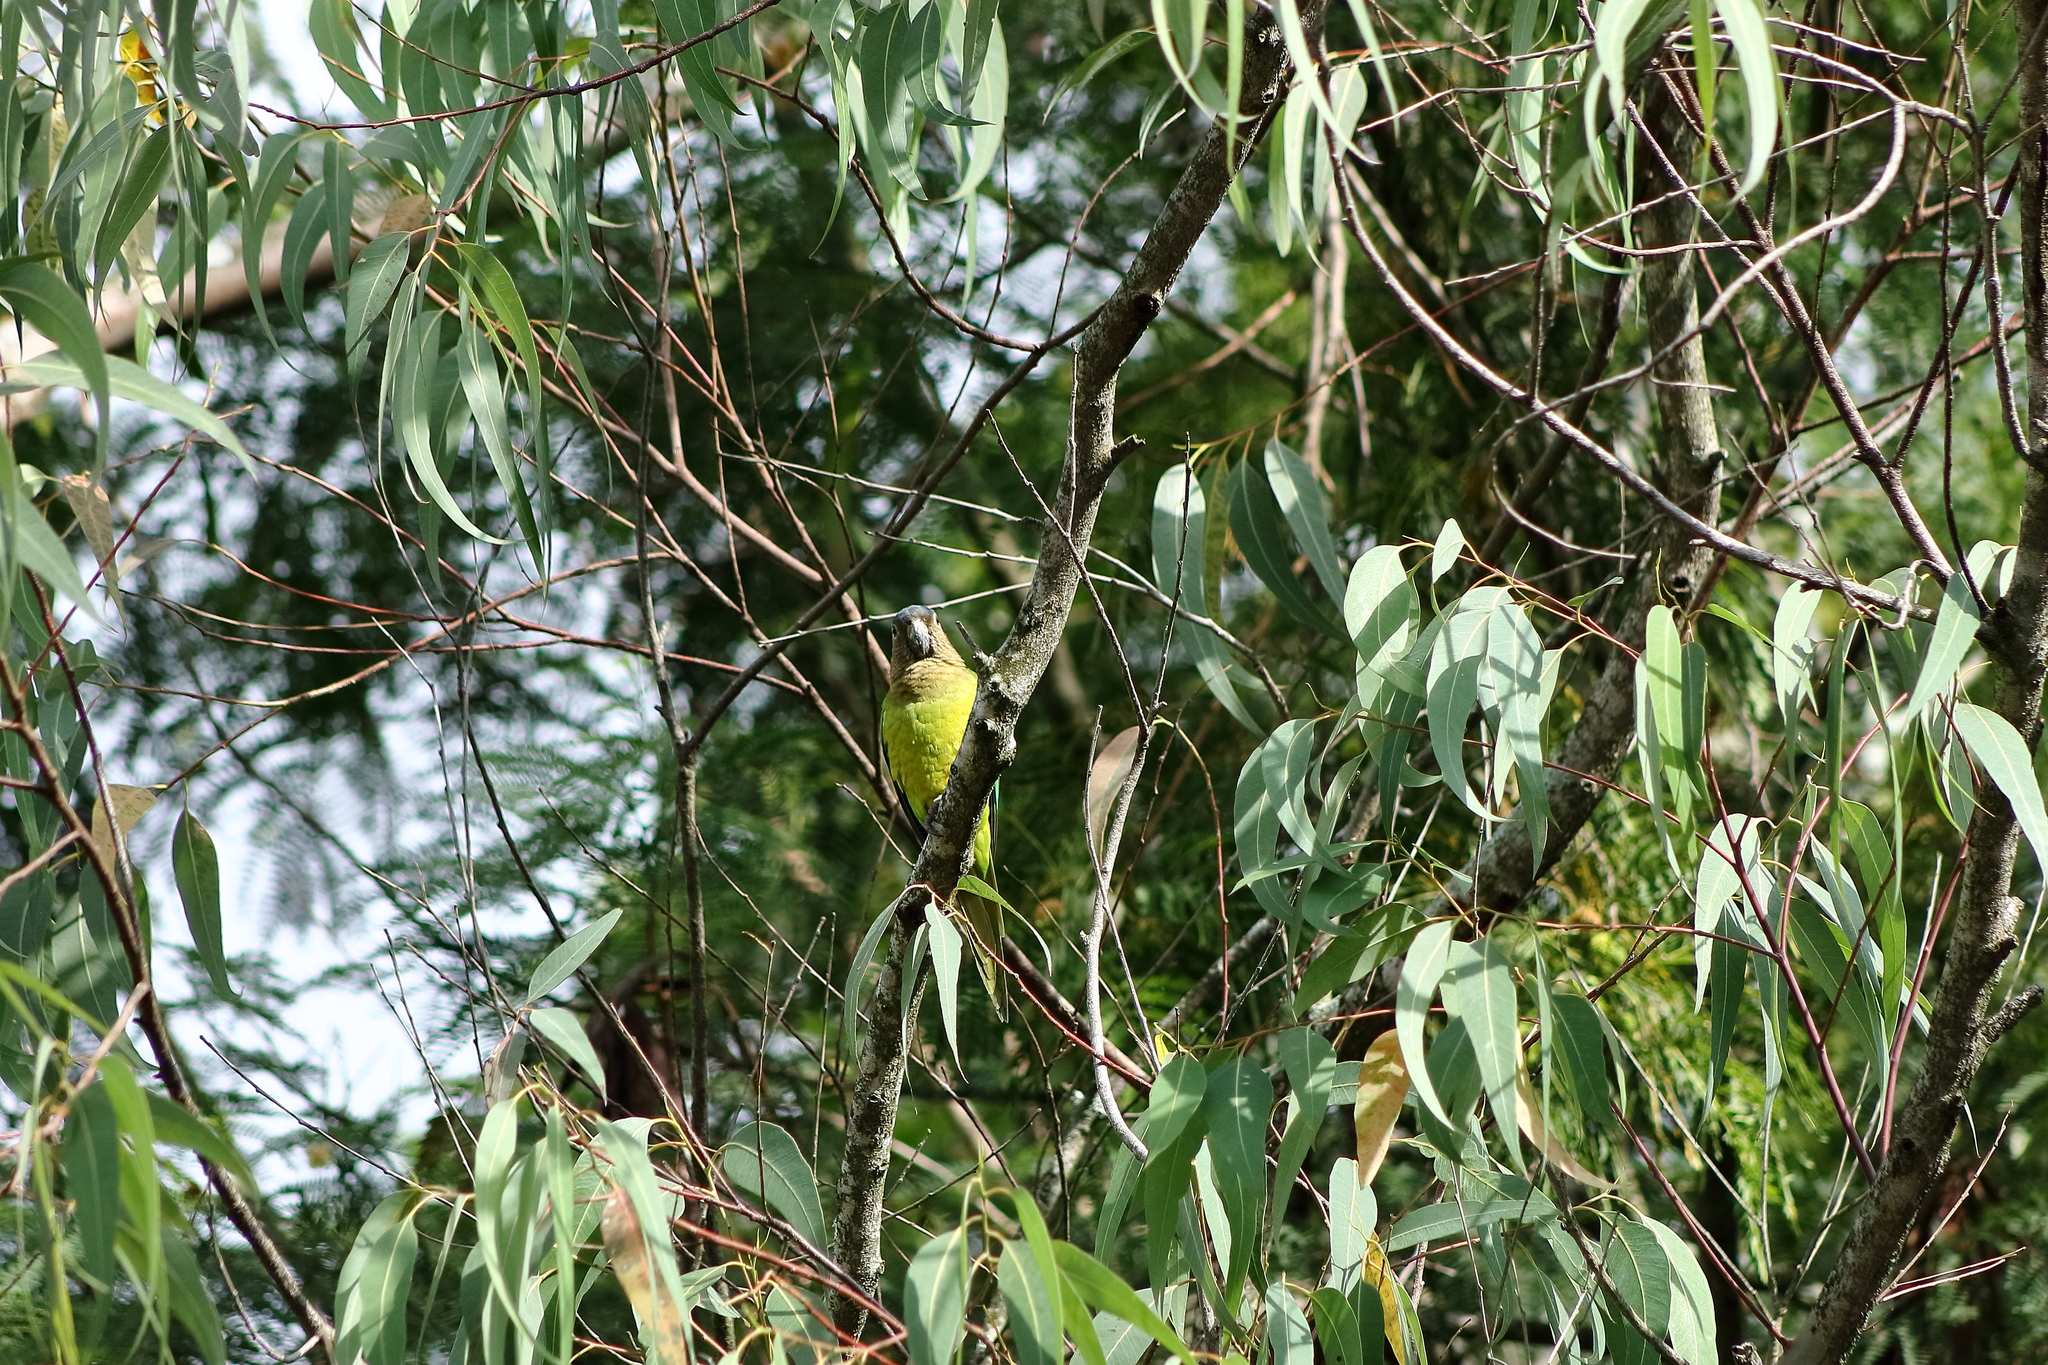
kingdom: Animalia
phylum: Chordata
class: Aves
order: Psittaciformes
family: Psittacidae
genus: Aratinga
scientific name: Aratinga pertinax
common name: Brown-throated parakeet
